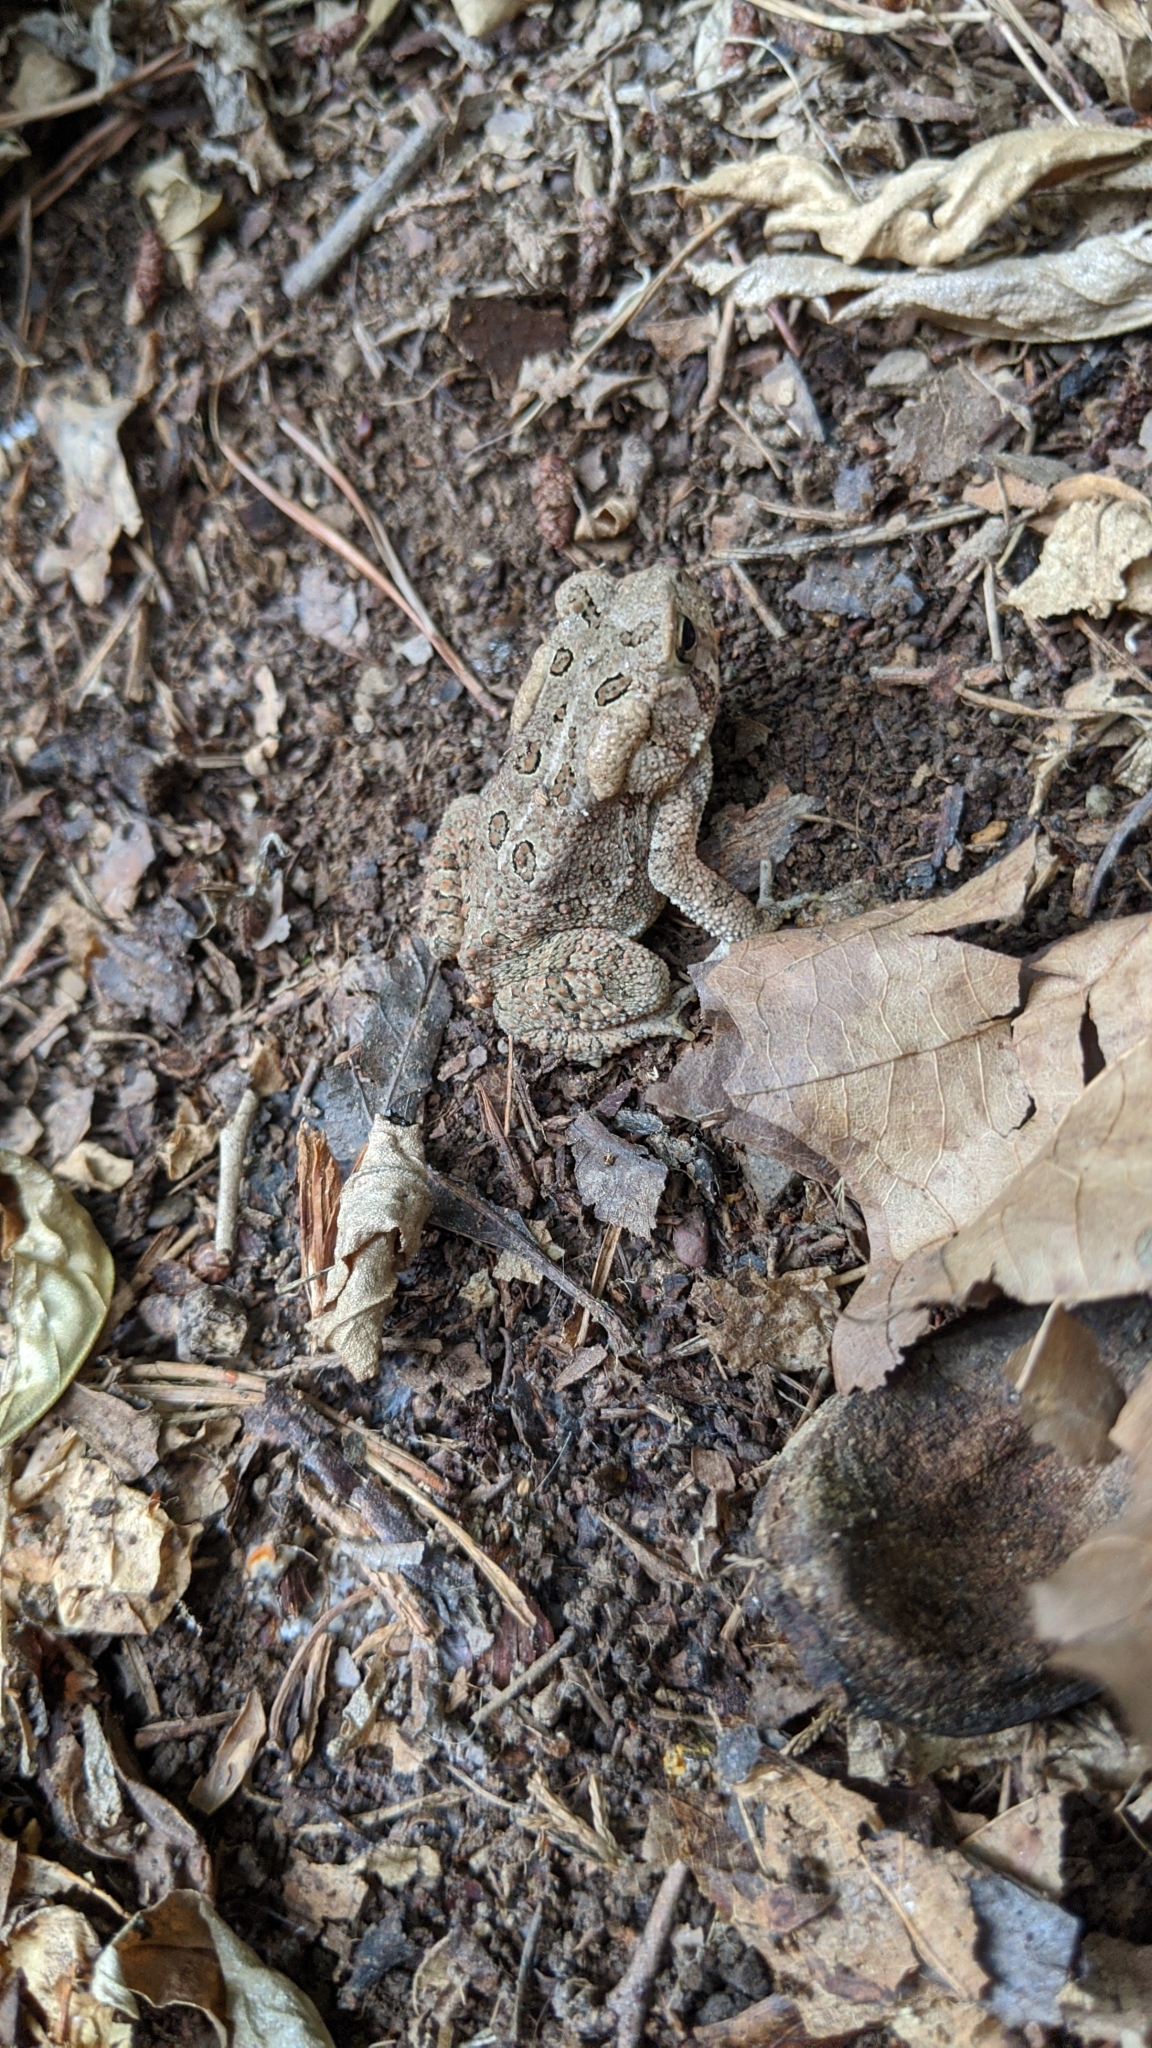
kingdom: Animalia
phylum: Chordata
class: Amphibia
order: Anura
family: Bufonidae
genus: Anaxyrus
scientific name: Anaxyrus fowleri
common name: Fowler's toad
